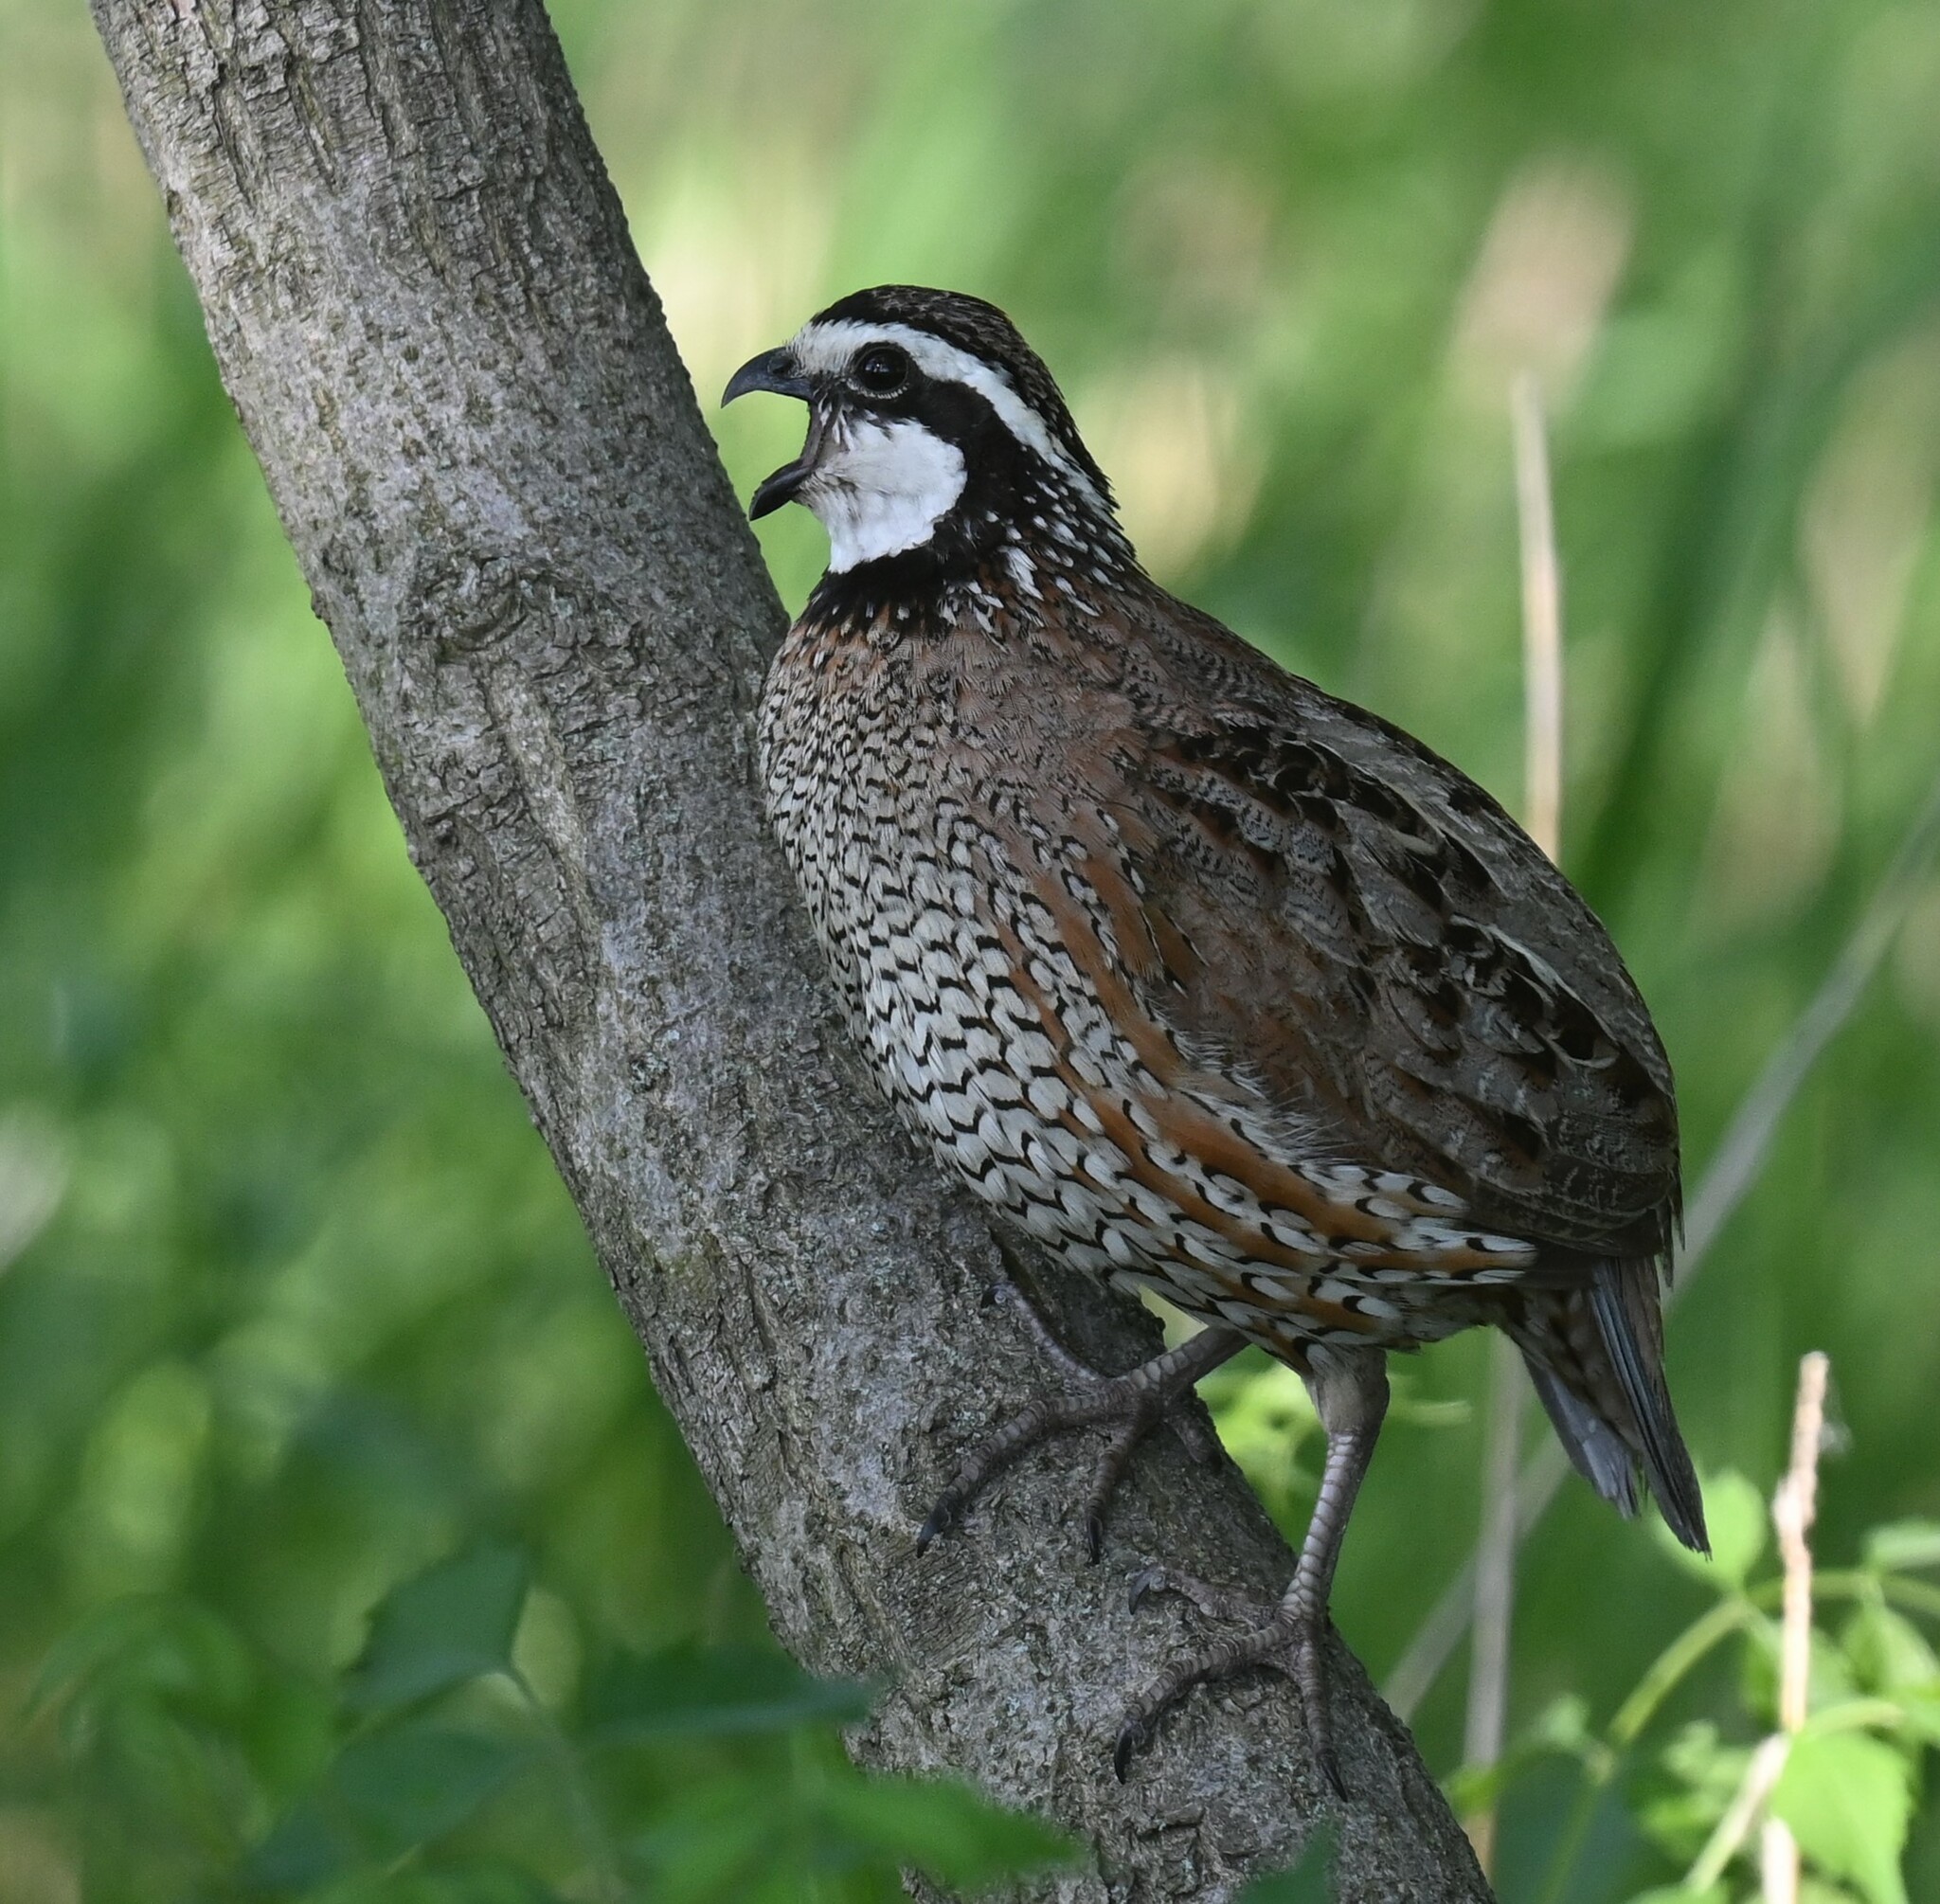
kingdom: Animalia
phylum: Chordata
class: Aves
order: Galliformes
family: Odontophoridae
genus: Colinus
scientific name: Colinus virginianus
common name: Northern bobwhite
